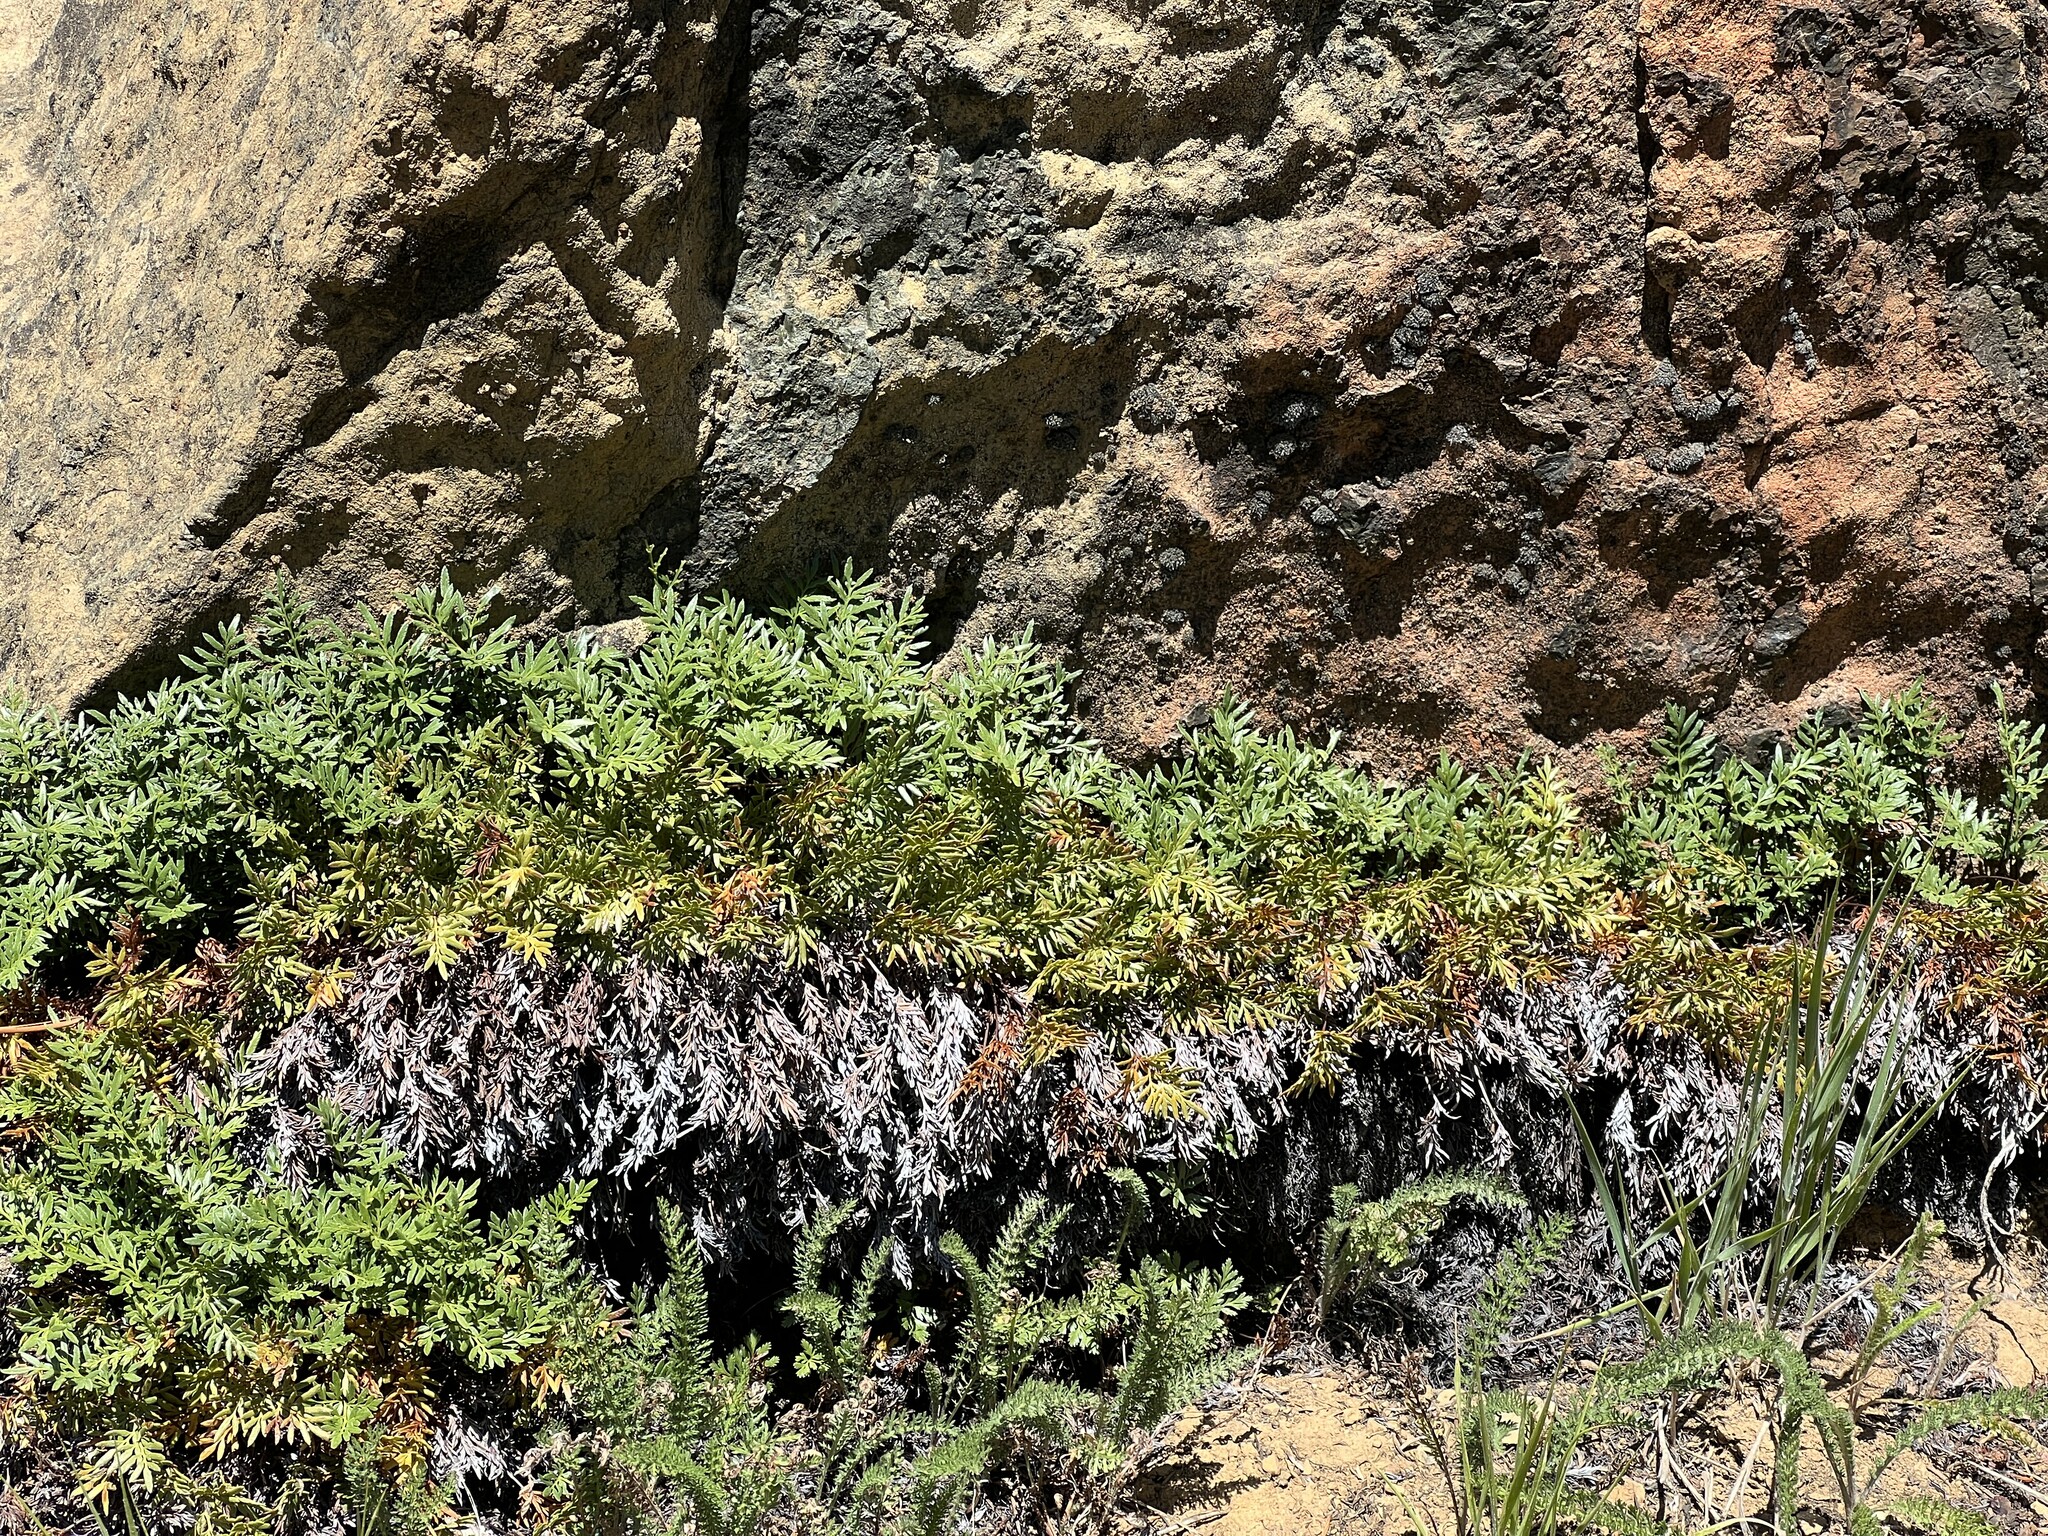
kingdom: Plantae
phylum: Tracheophyta
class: Polypodiopsida
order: Polypodiales
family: Pteridaceae
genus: Aspidotis
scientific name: Aspidotis densa
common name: Indian's dream
